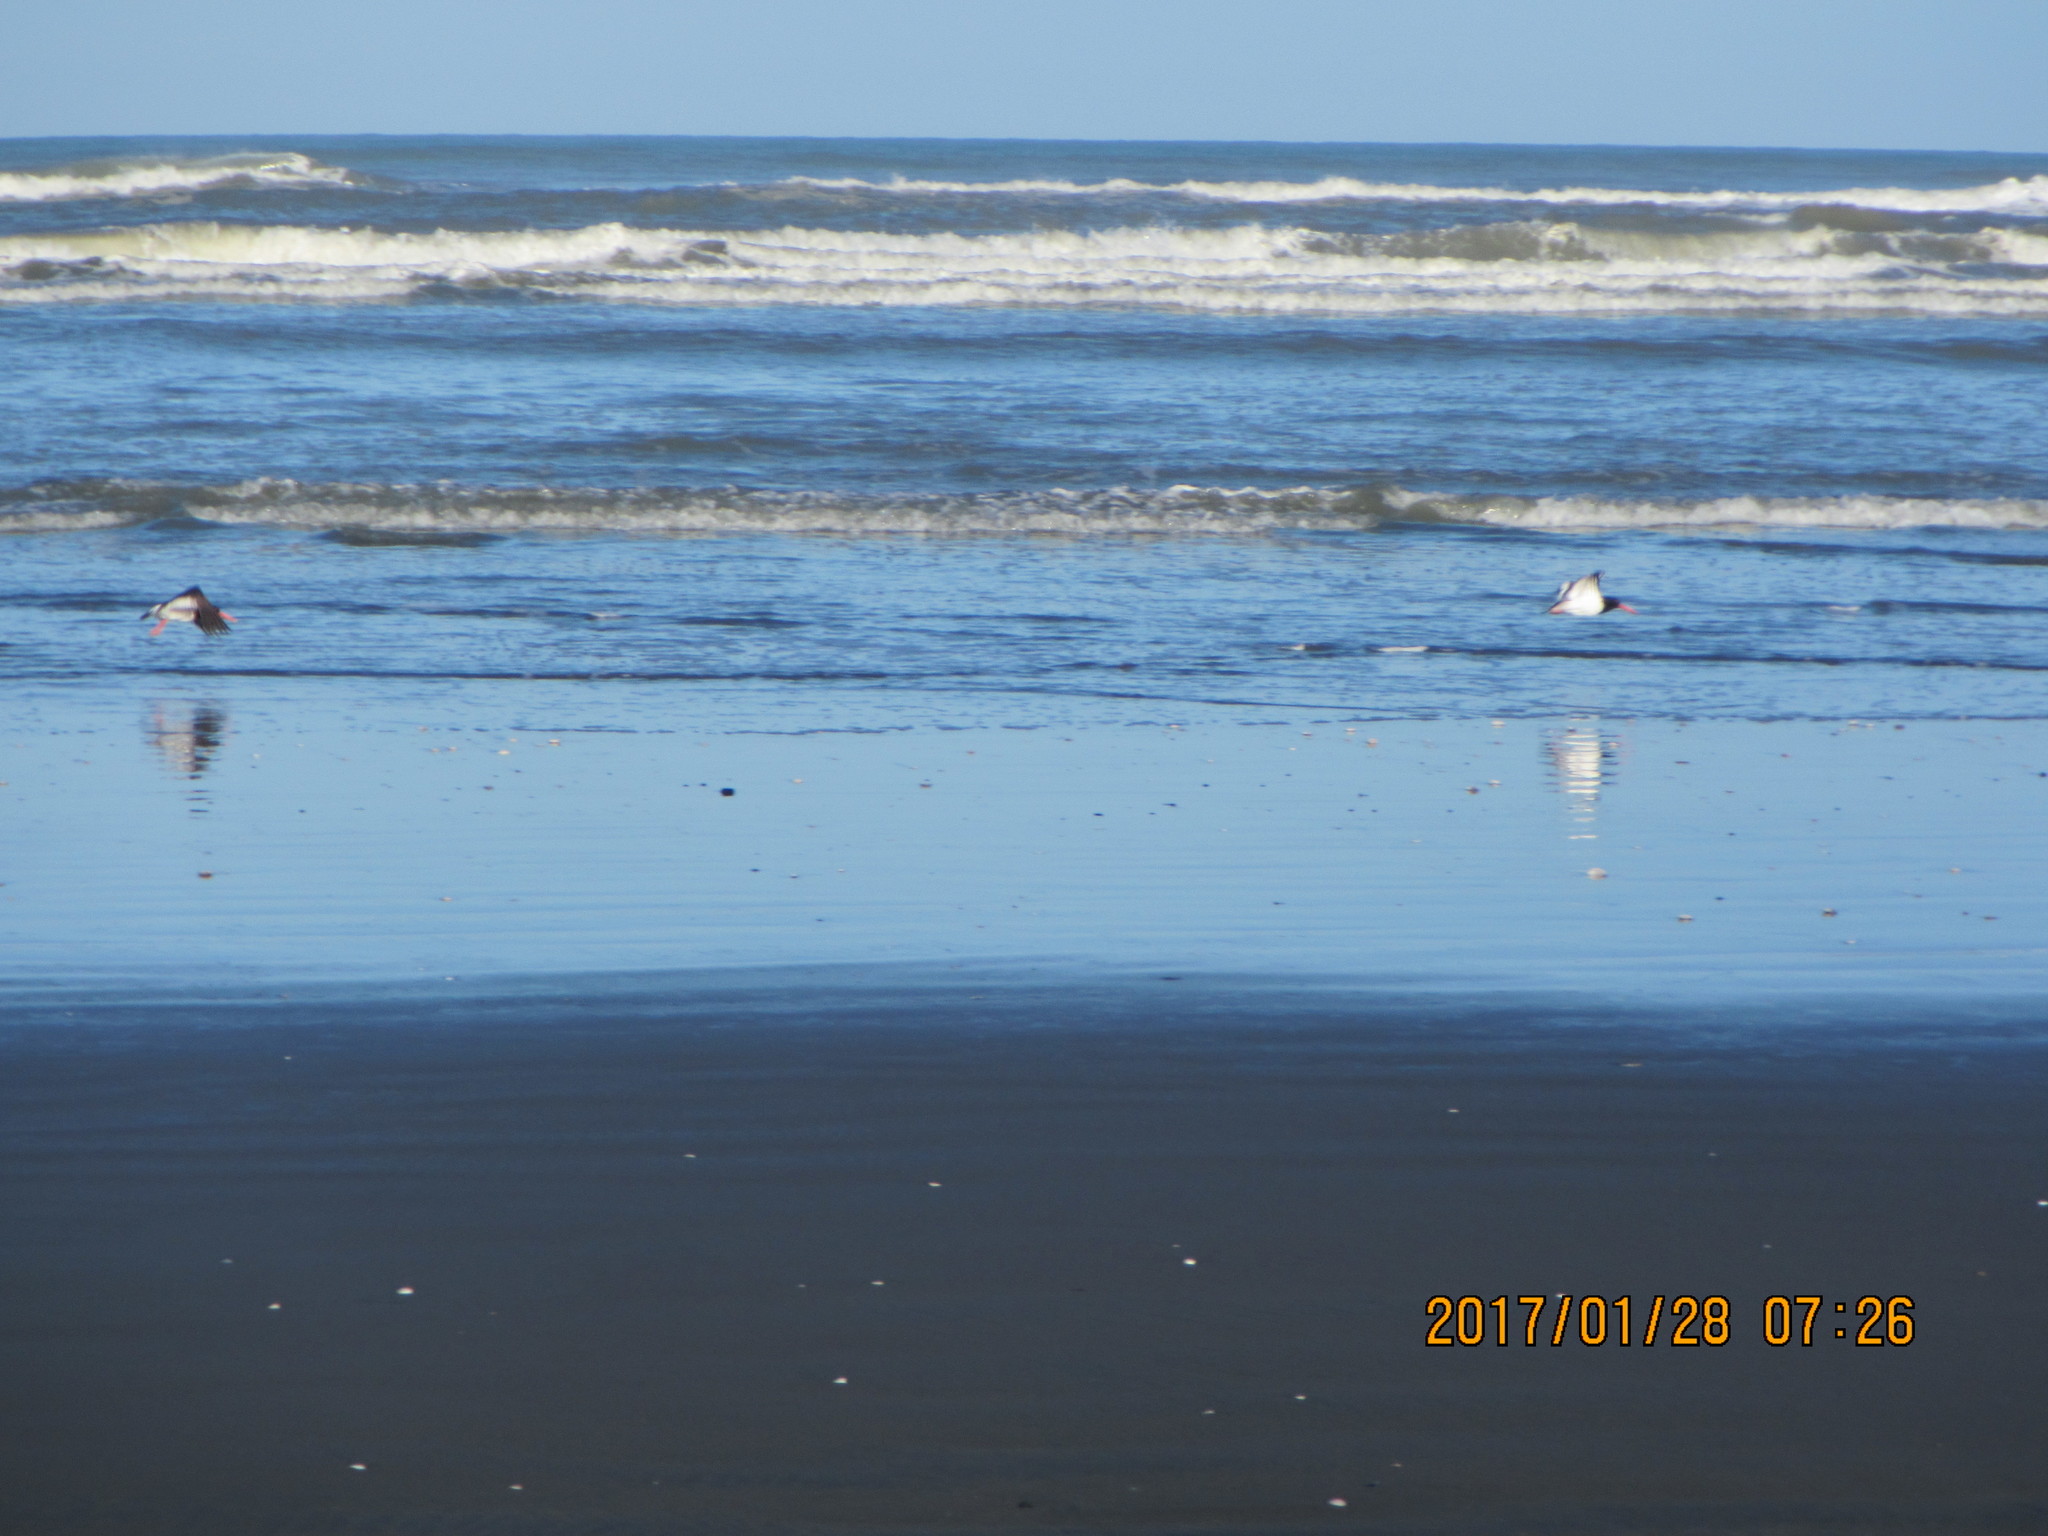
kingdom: Animalia
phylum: Chordata
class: Aves
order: Charadriiformes
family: Haematopodidae
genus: Haematopus
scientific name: Haematopus finschi
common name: South island oystercatcher
